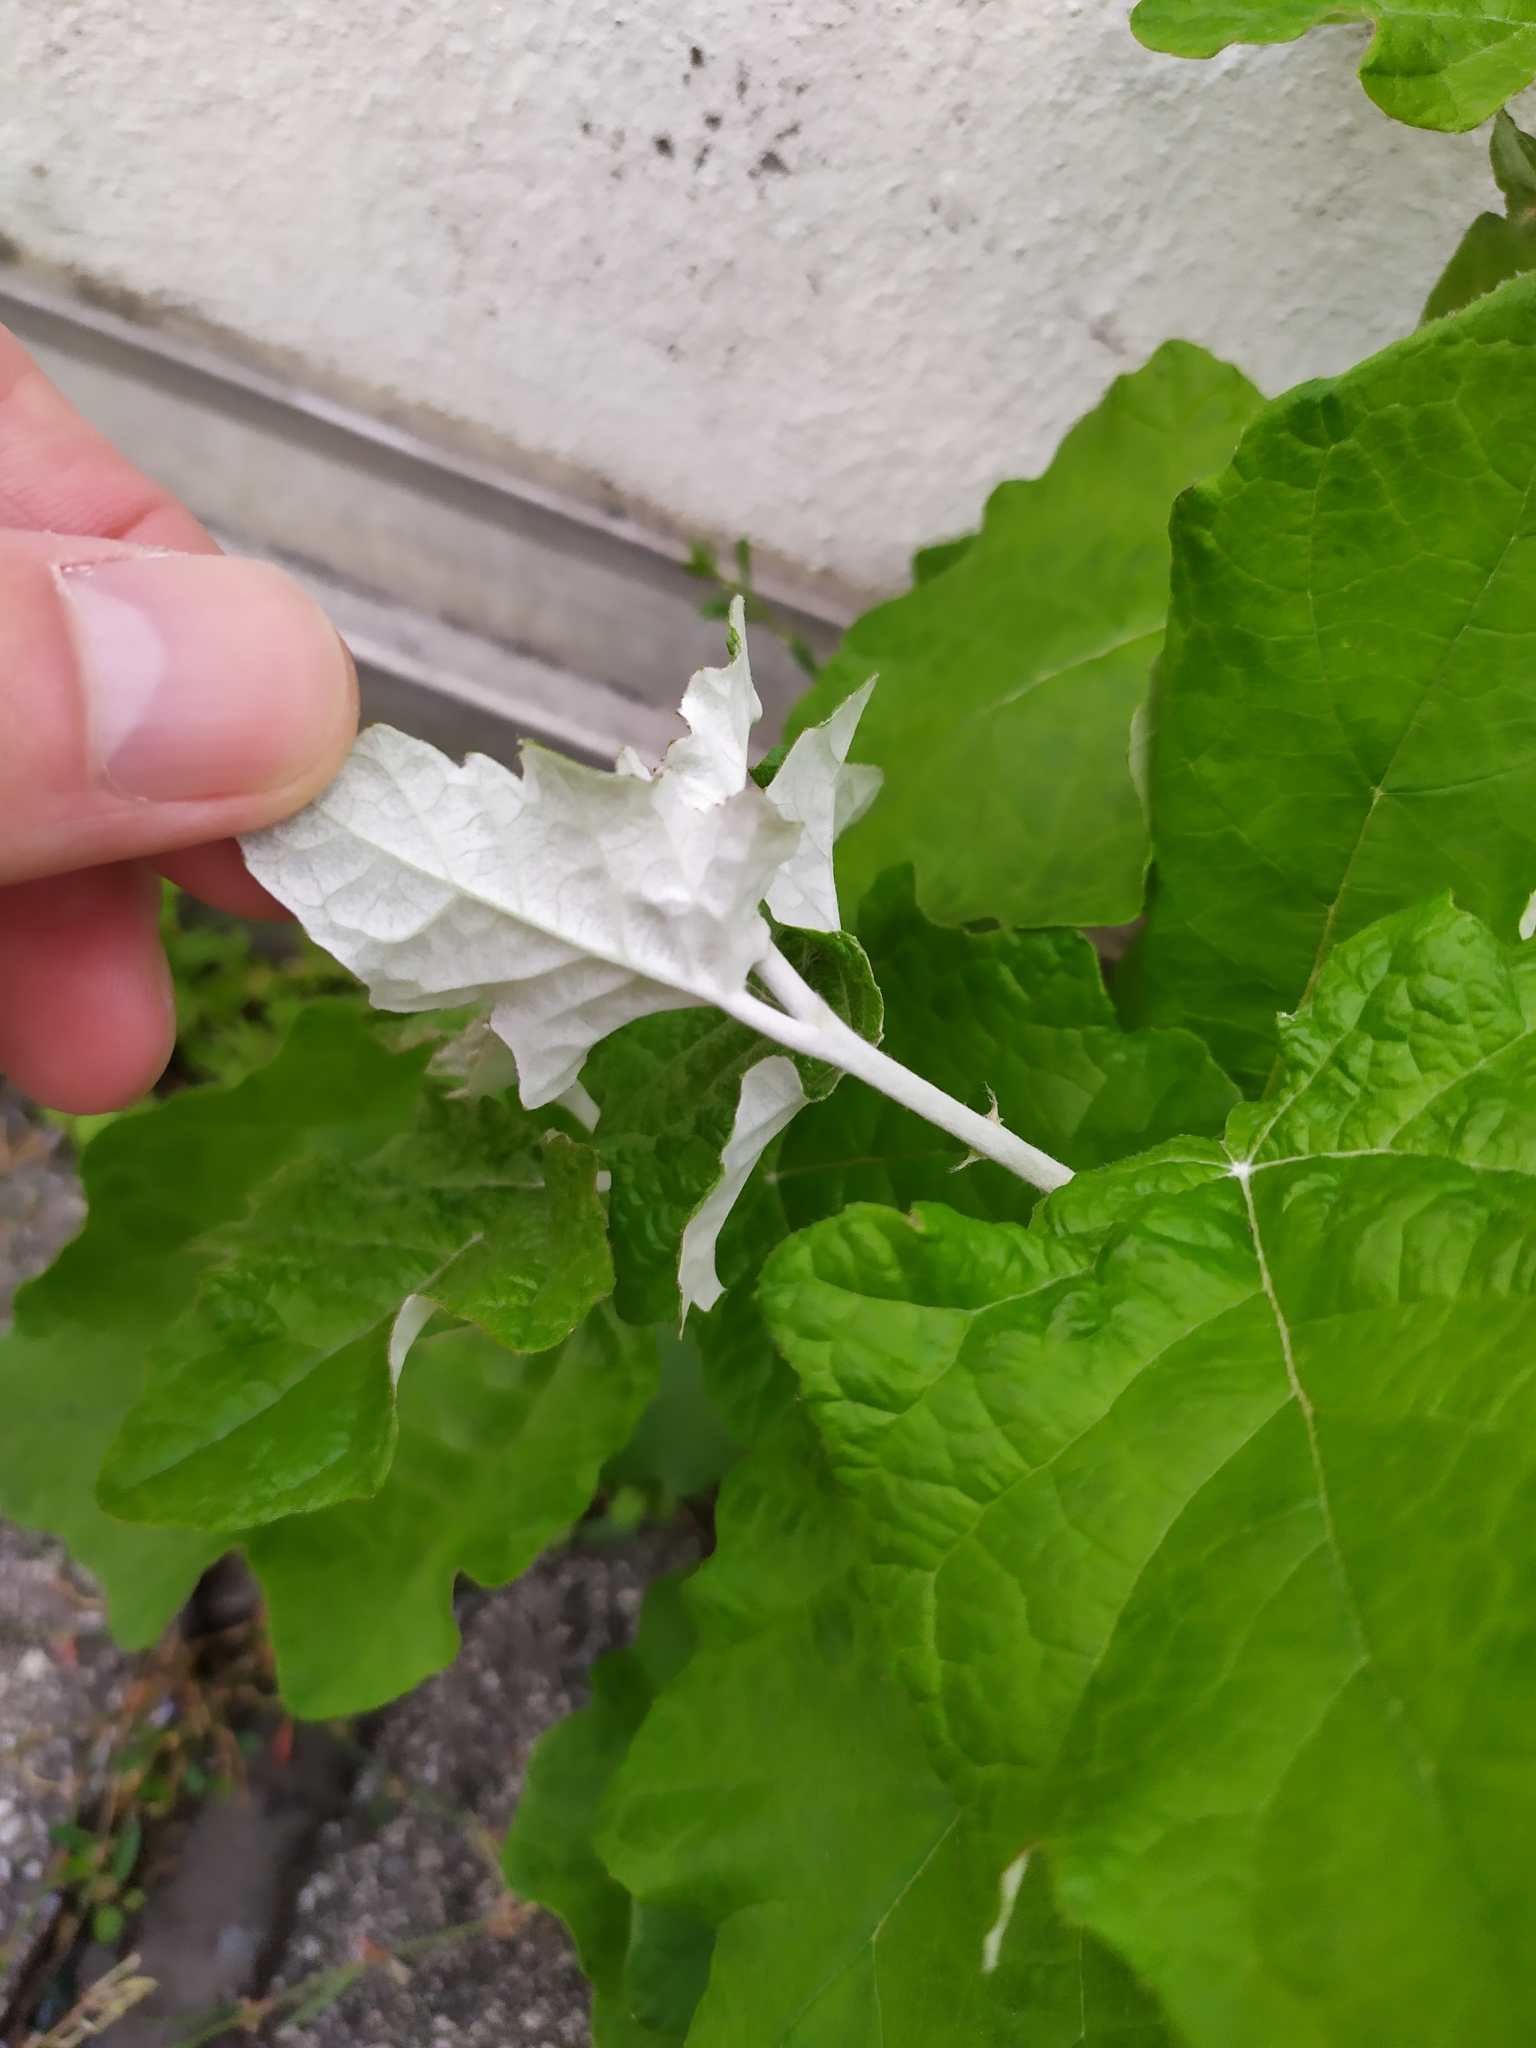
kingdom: Plantae
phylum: Tracheophyta
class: Magnoliopsida
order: Malpighiales
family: Salicaceae
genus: Populus
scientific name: Populus alba
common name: White poplar
